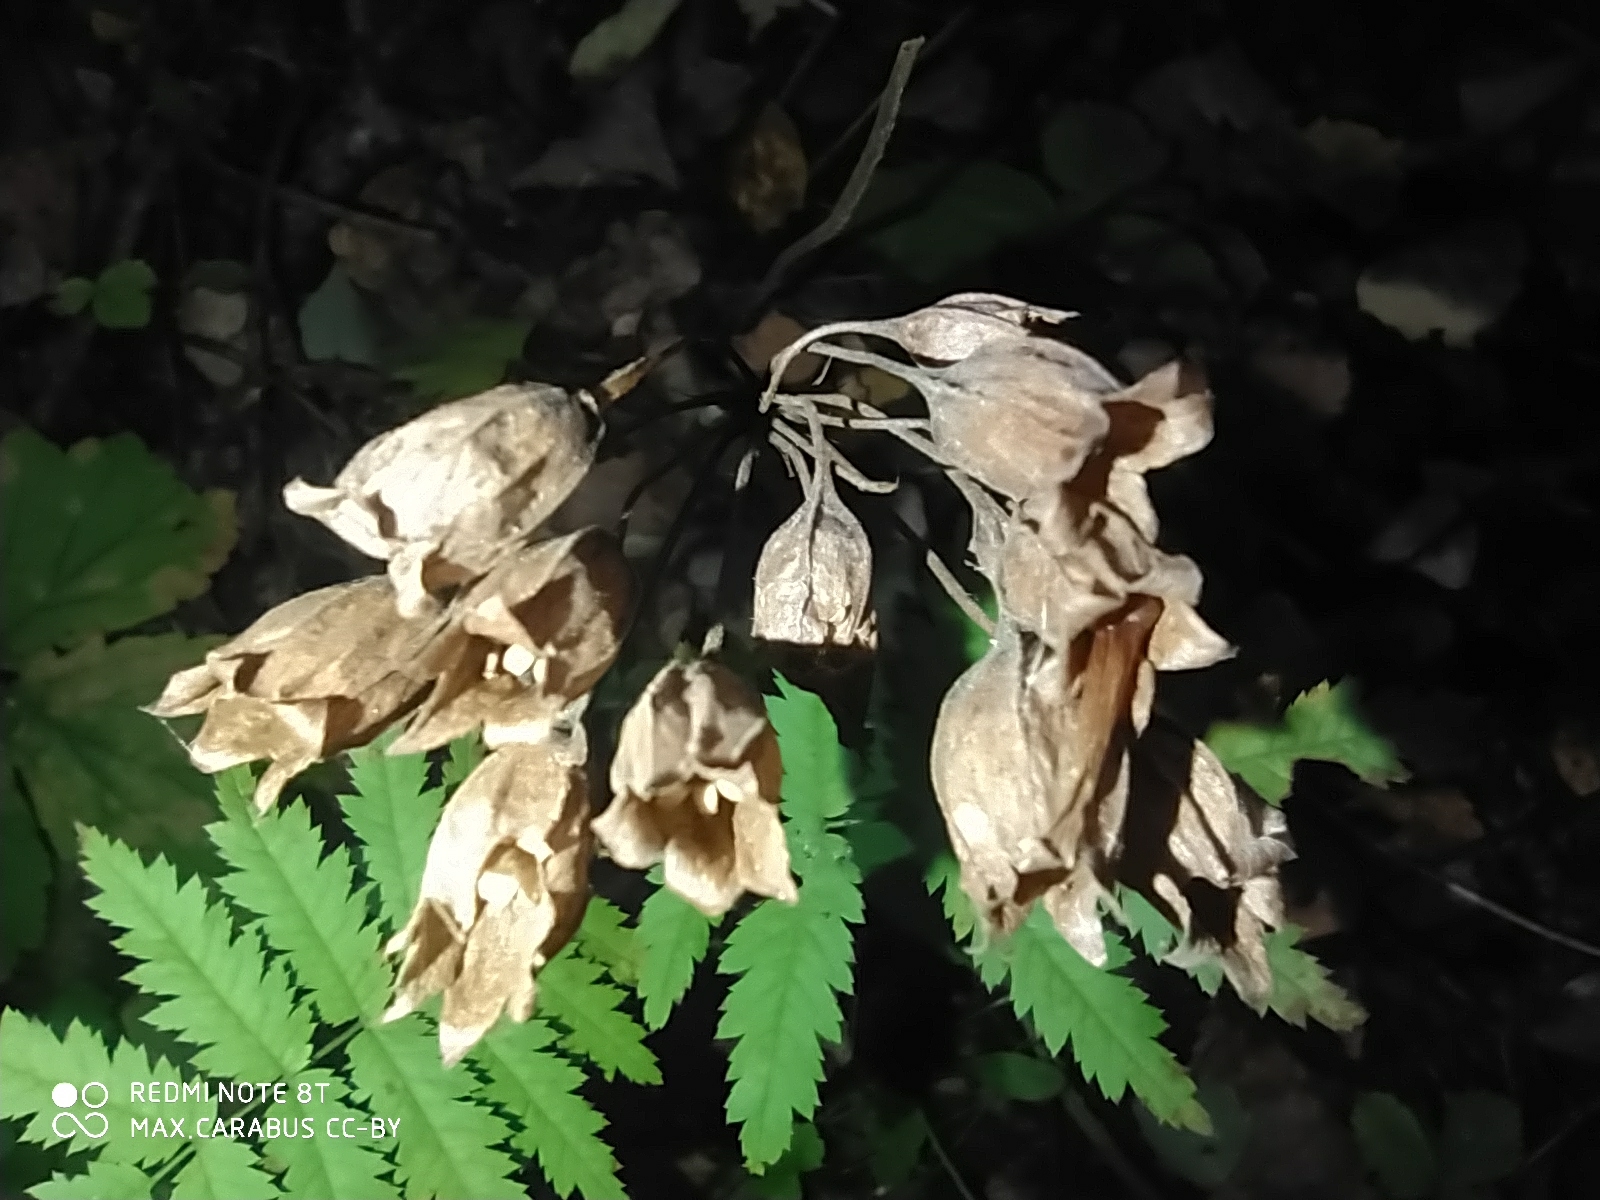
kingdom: Plantae
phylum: Tracheophyta
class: Magnoliopsida
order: Ericales
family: Primulaceae
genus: Primula
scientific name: Primula veris
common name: Cowslip
